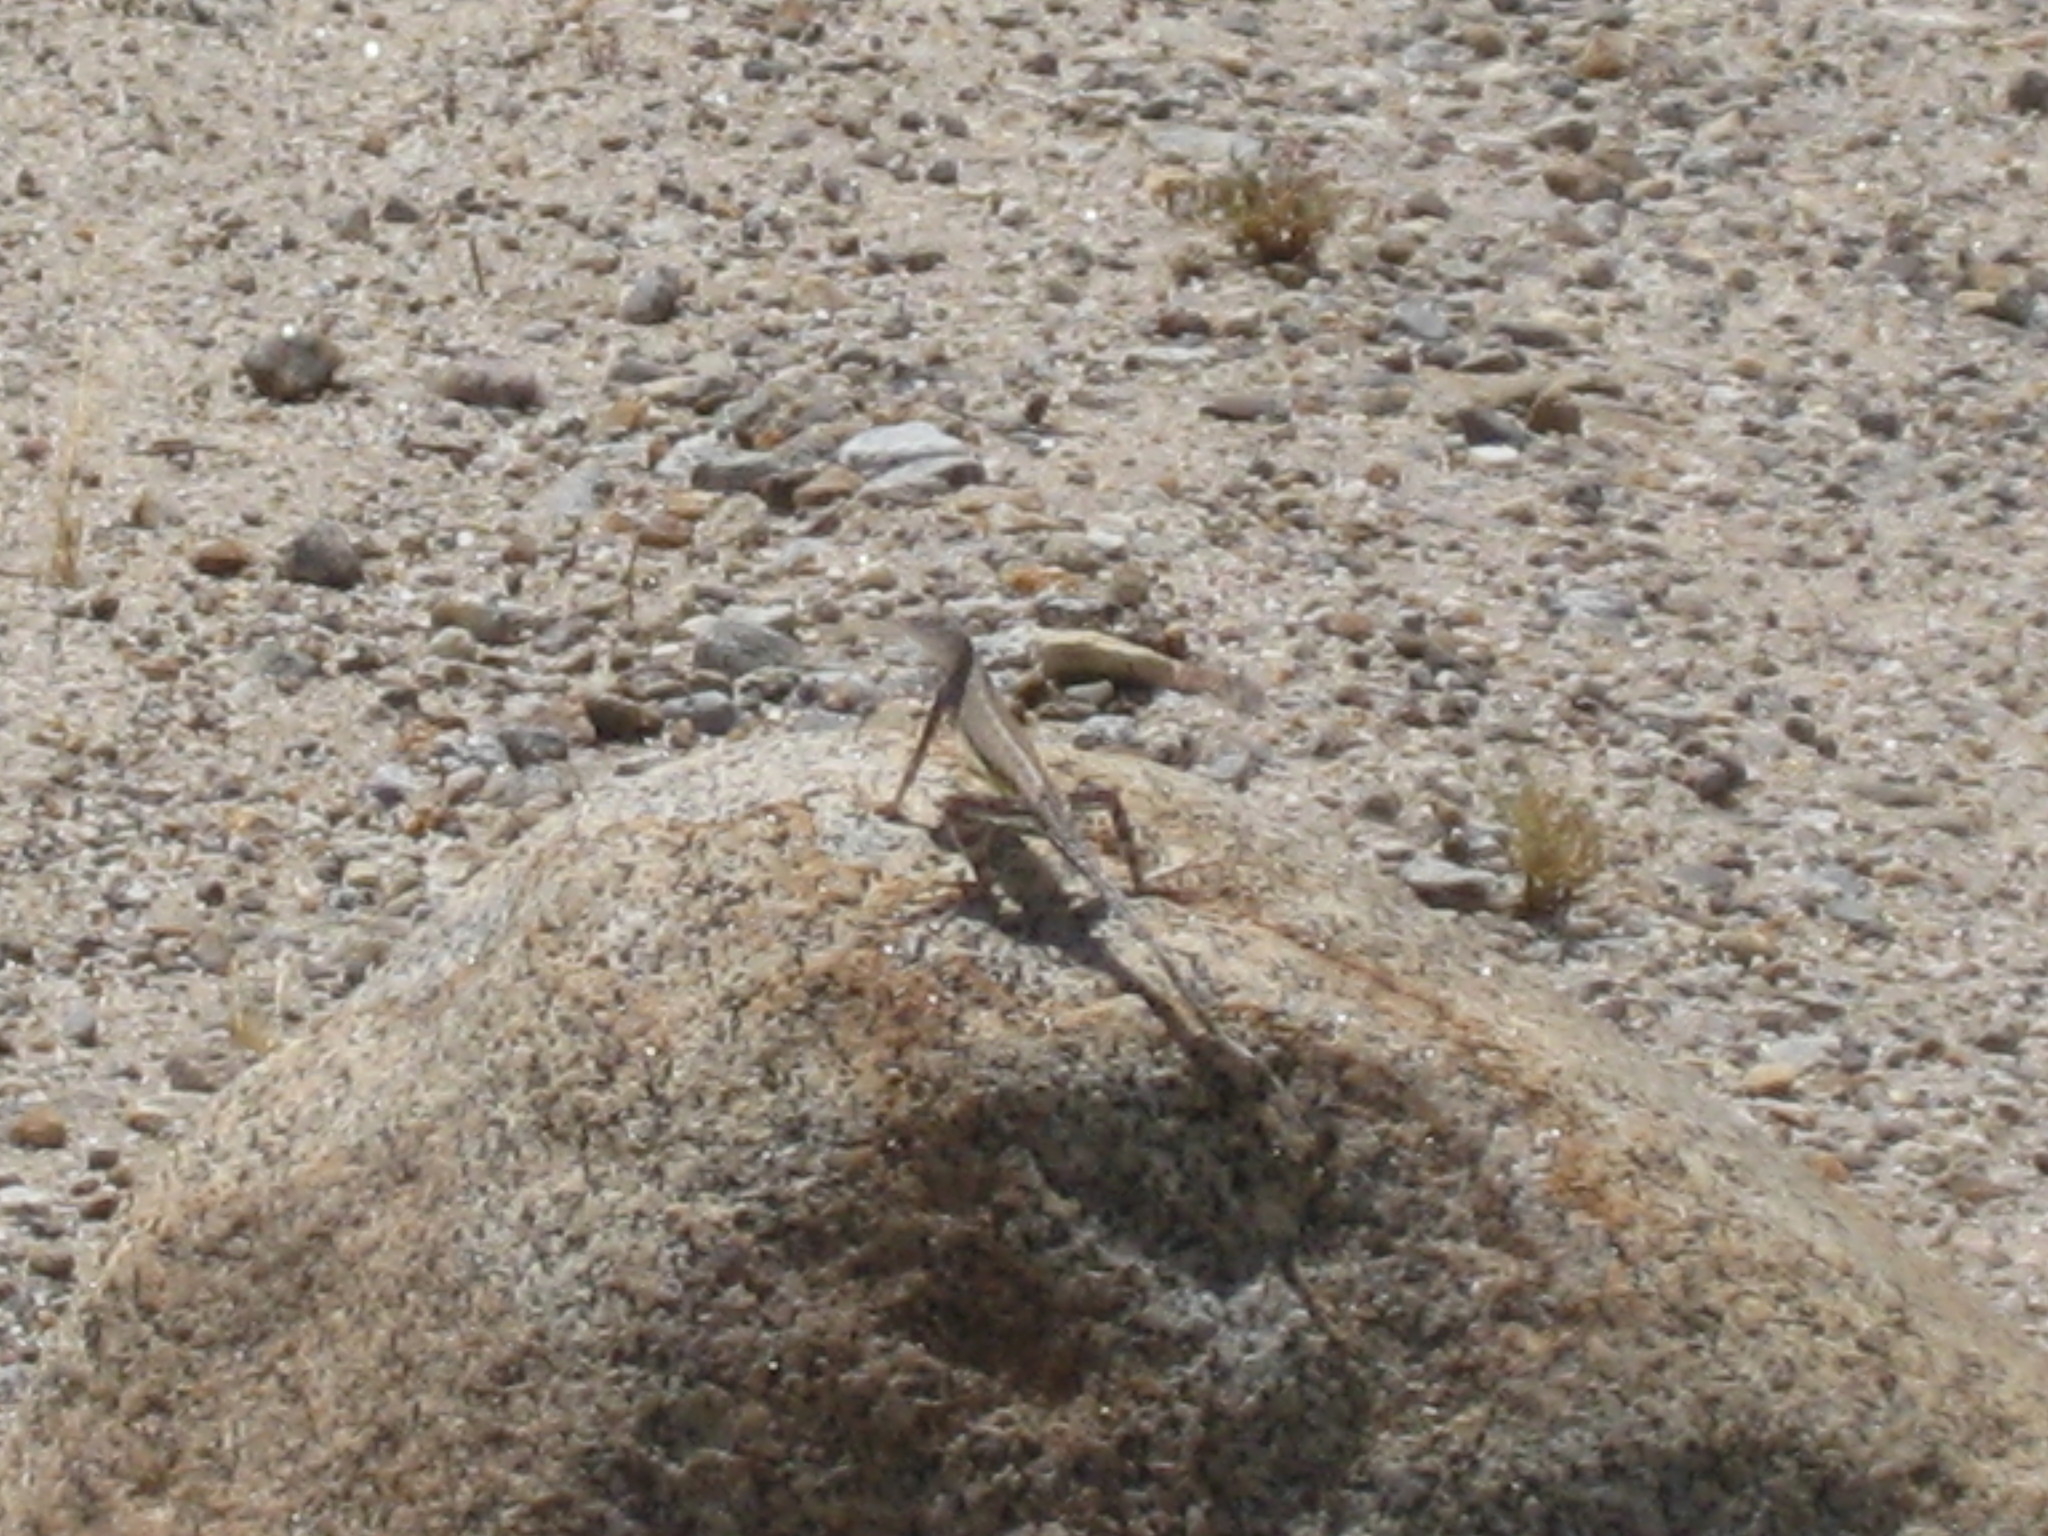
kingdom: Animalia
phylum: Chordata
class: Squamata
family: Phrynosomatidae
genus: Callisaurus
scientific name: Callisaurus draconoides
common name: Zebra-tailed lizard
